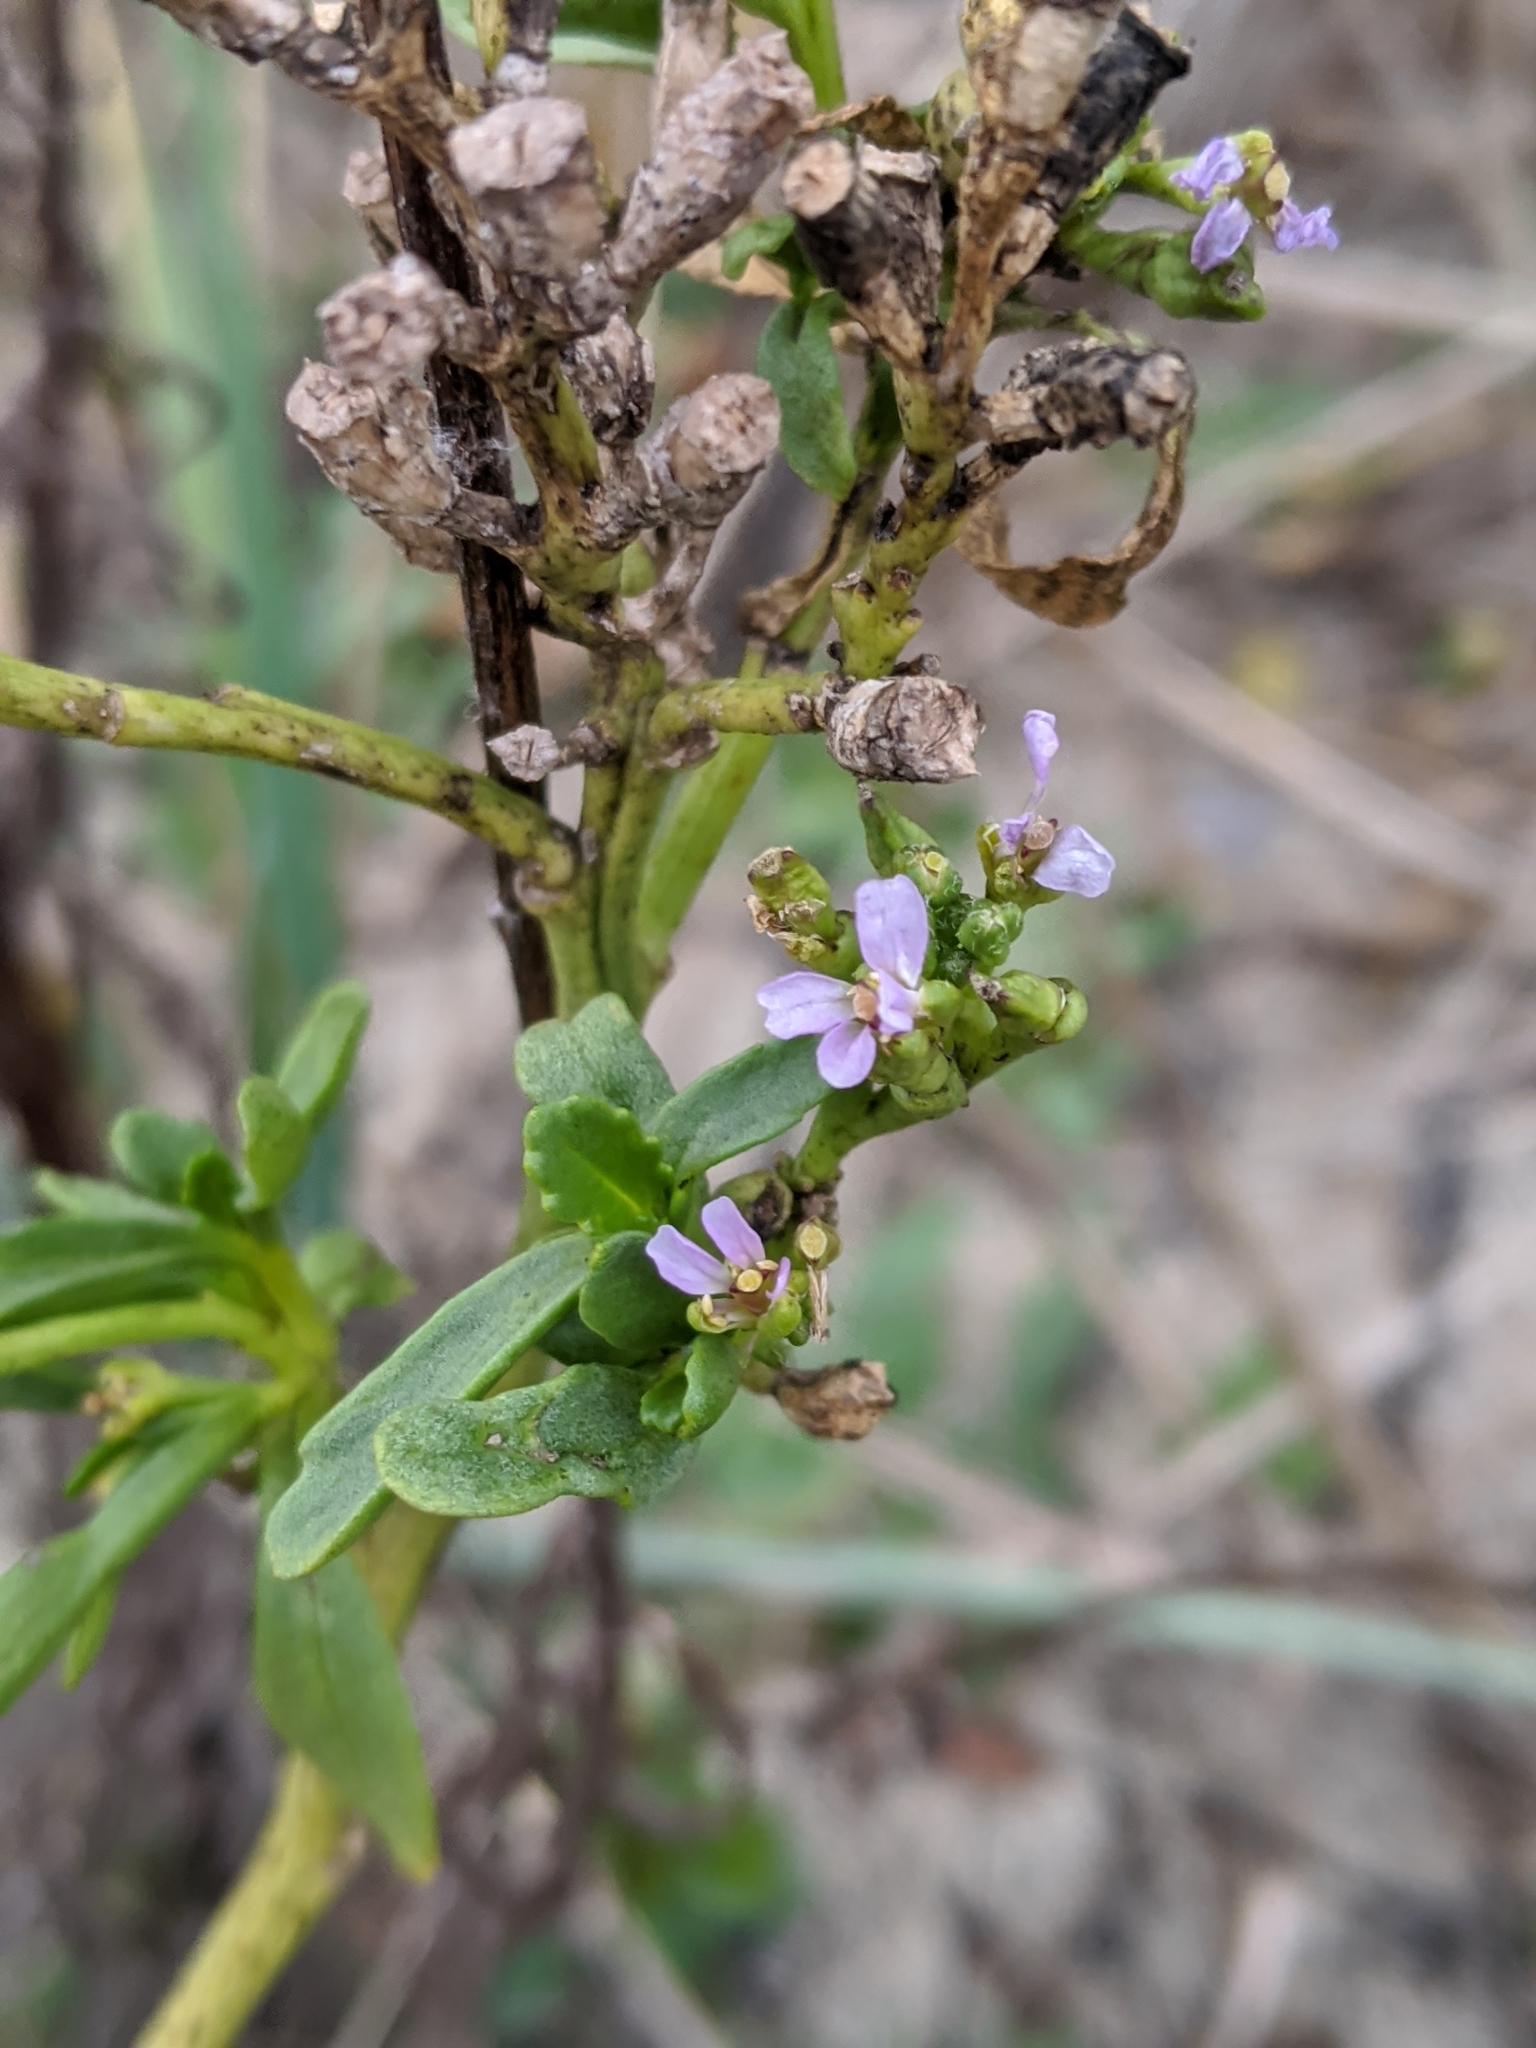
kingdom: Plantae
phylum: Tracheophyta
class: Magnoliopsida
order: Brassicales
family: Brassicaceae
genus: Cakile
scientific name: Cakile edentula
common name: American sea rocket
